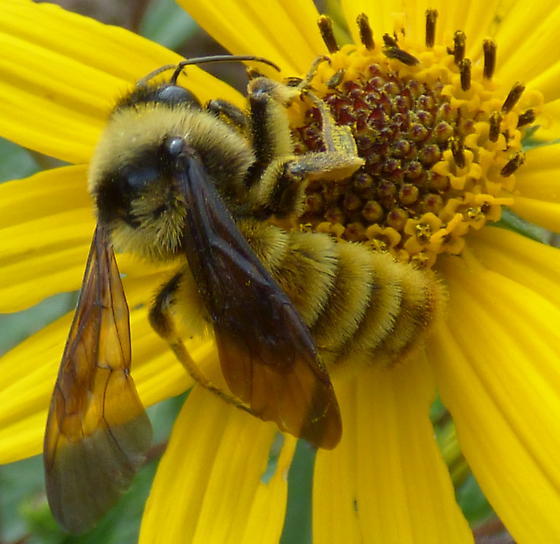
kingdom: Animalia
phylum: Arthropoda
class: Insecta
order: Hymenoptera
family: Apidae
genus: Bombus
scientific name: Bombus pensylvanicus
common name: Bumble bee
